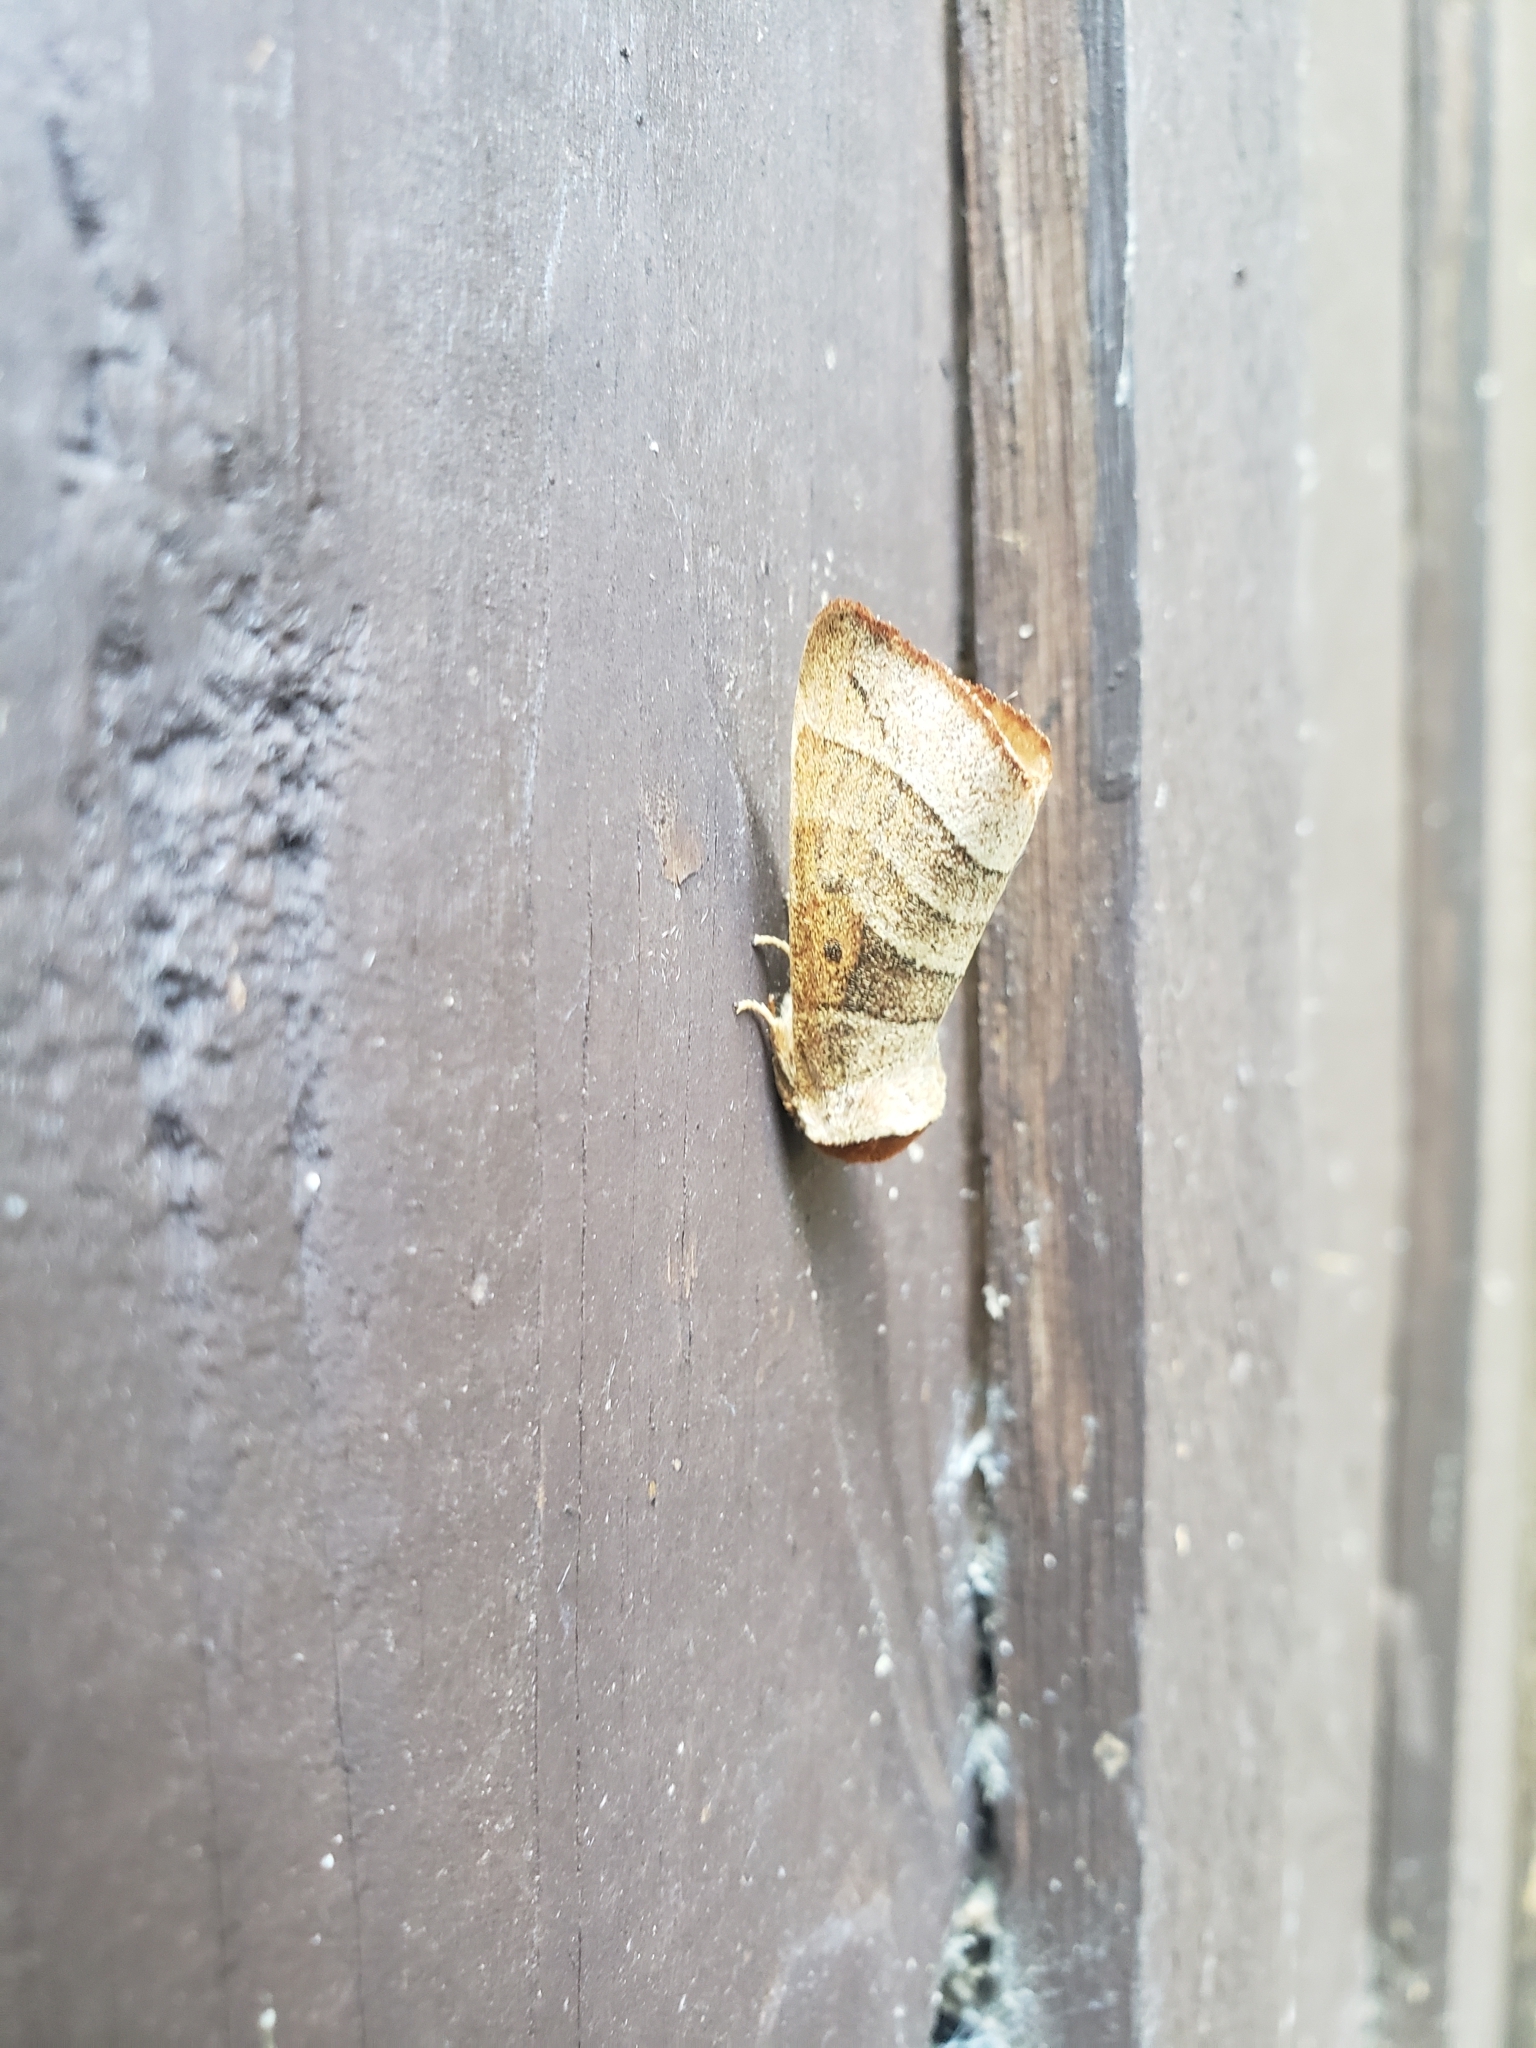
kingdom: Animalia
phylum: Arthropoda
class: Insecta
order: Lepidoptera
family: Notodontidae
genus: Datana
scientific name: Datana integerrima
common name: Walnut caterpillar
